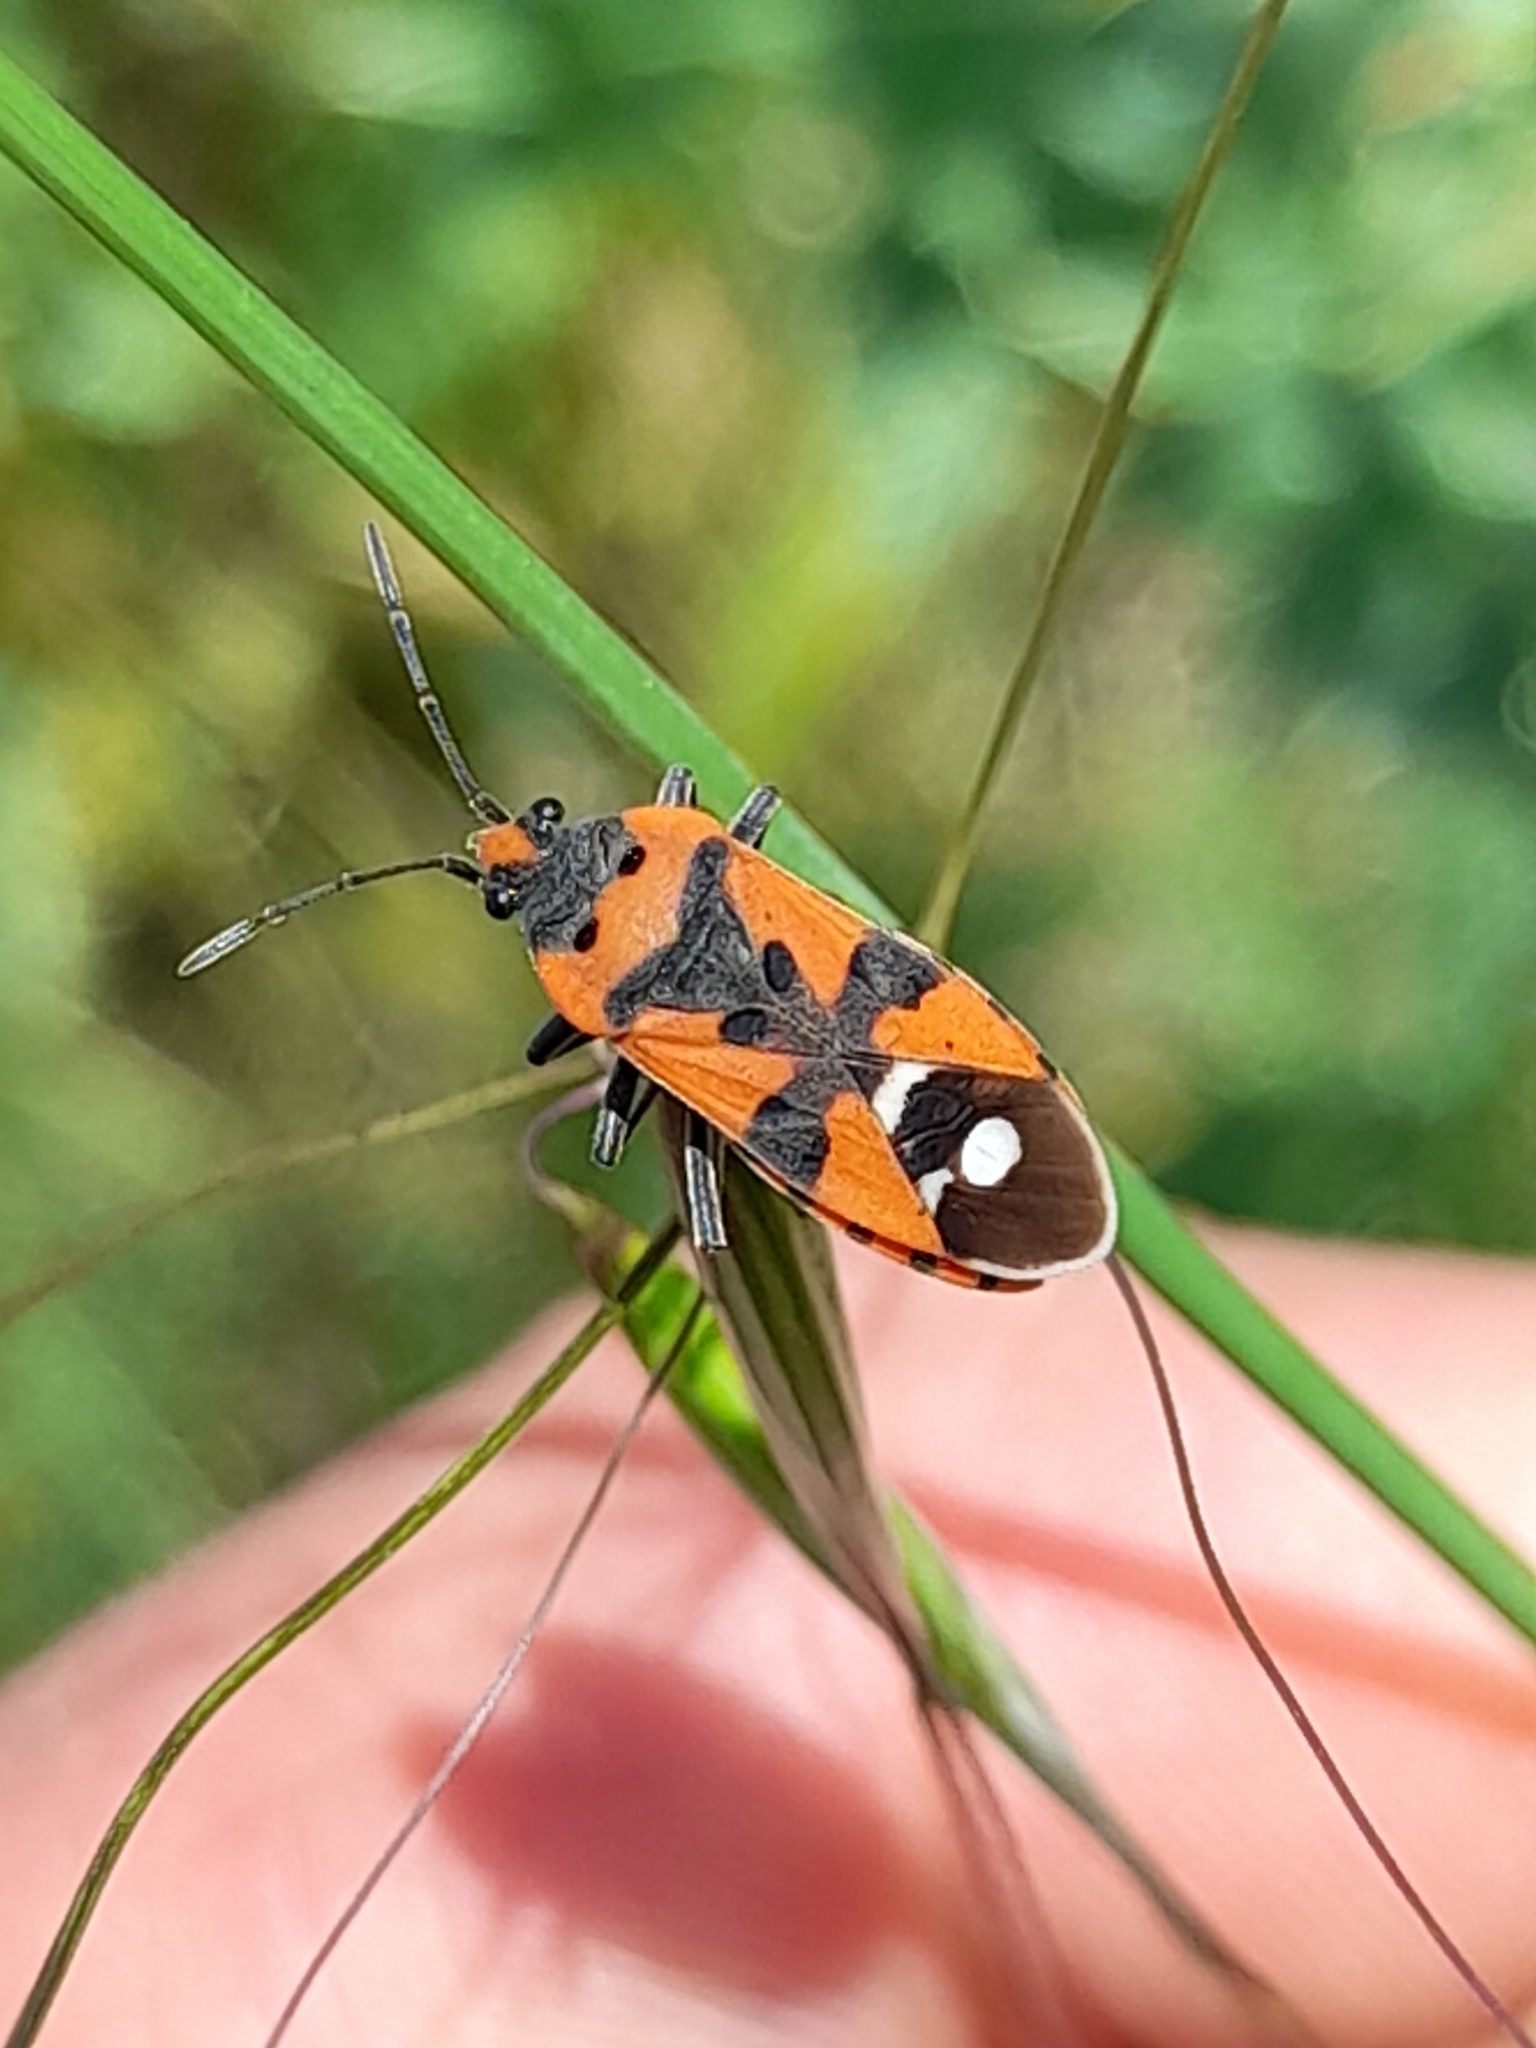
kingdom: Animalia
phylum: Arthropoda
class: Insecta
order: Hemiptera
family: Lygaeidae
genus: Lygaeus
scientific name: Lygaeus equestris
